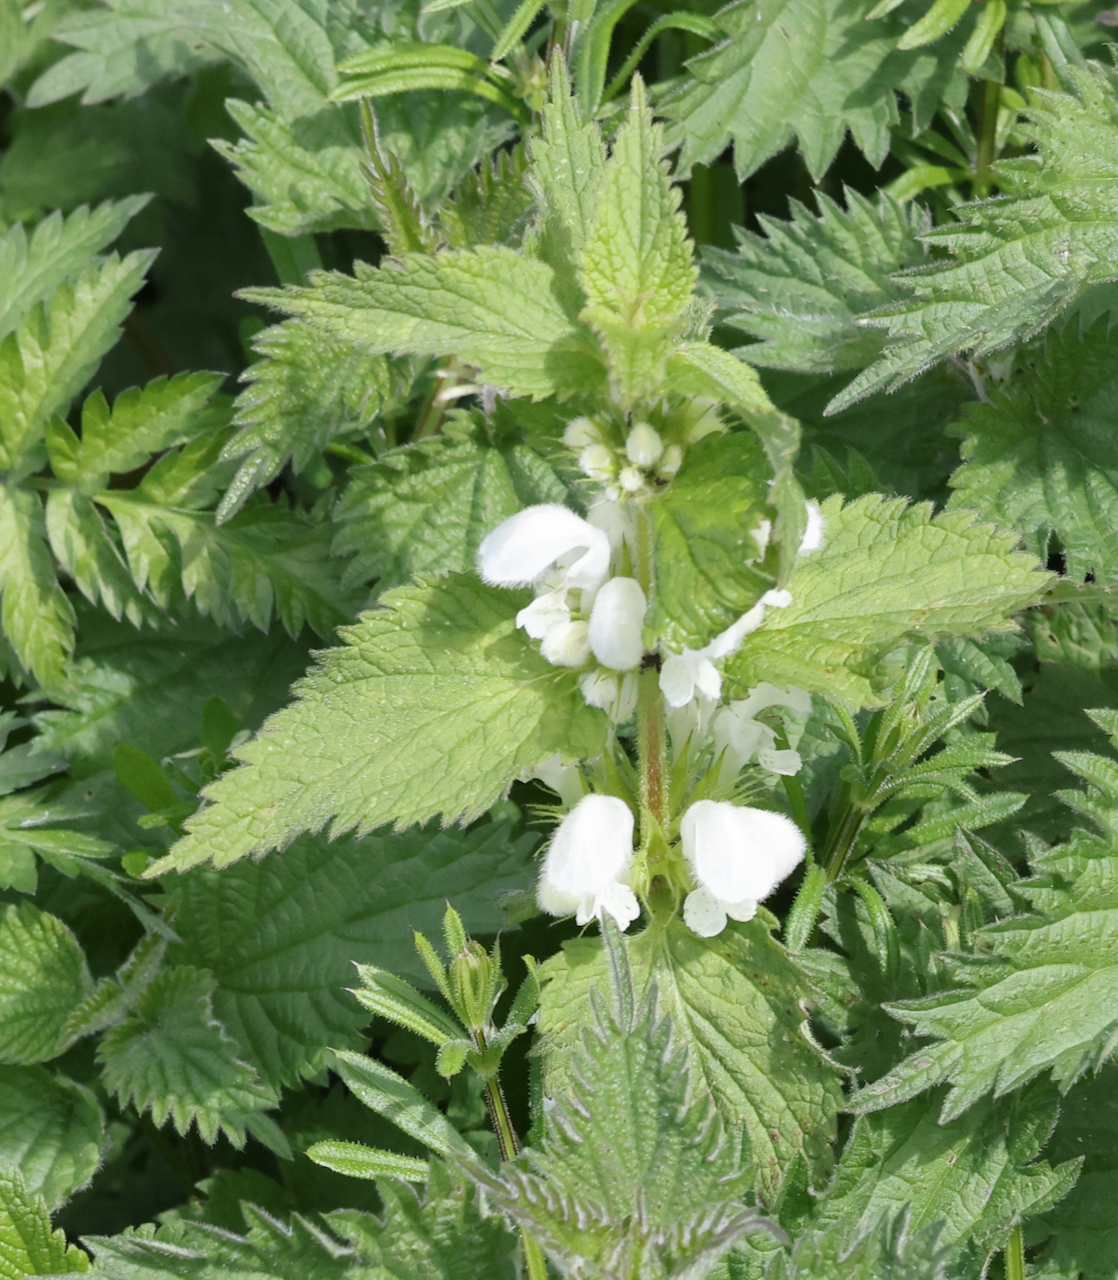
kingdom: Plantae
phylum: Tracheophyta
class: Magnoliopsida
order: Lamiales
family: Lamiaceae
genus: Lamium
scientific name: Lamium album
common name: White dead-nettle
